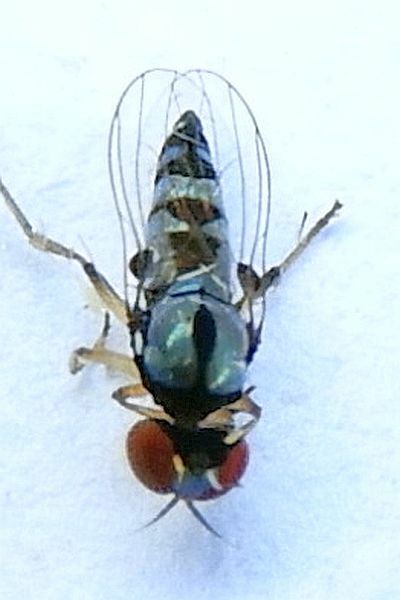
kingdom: Animalia
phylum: Arthropoda
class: Insecta
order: Diptera
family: Platypezidae
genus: Bertamyia
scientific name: Bertamyia notata
